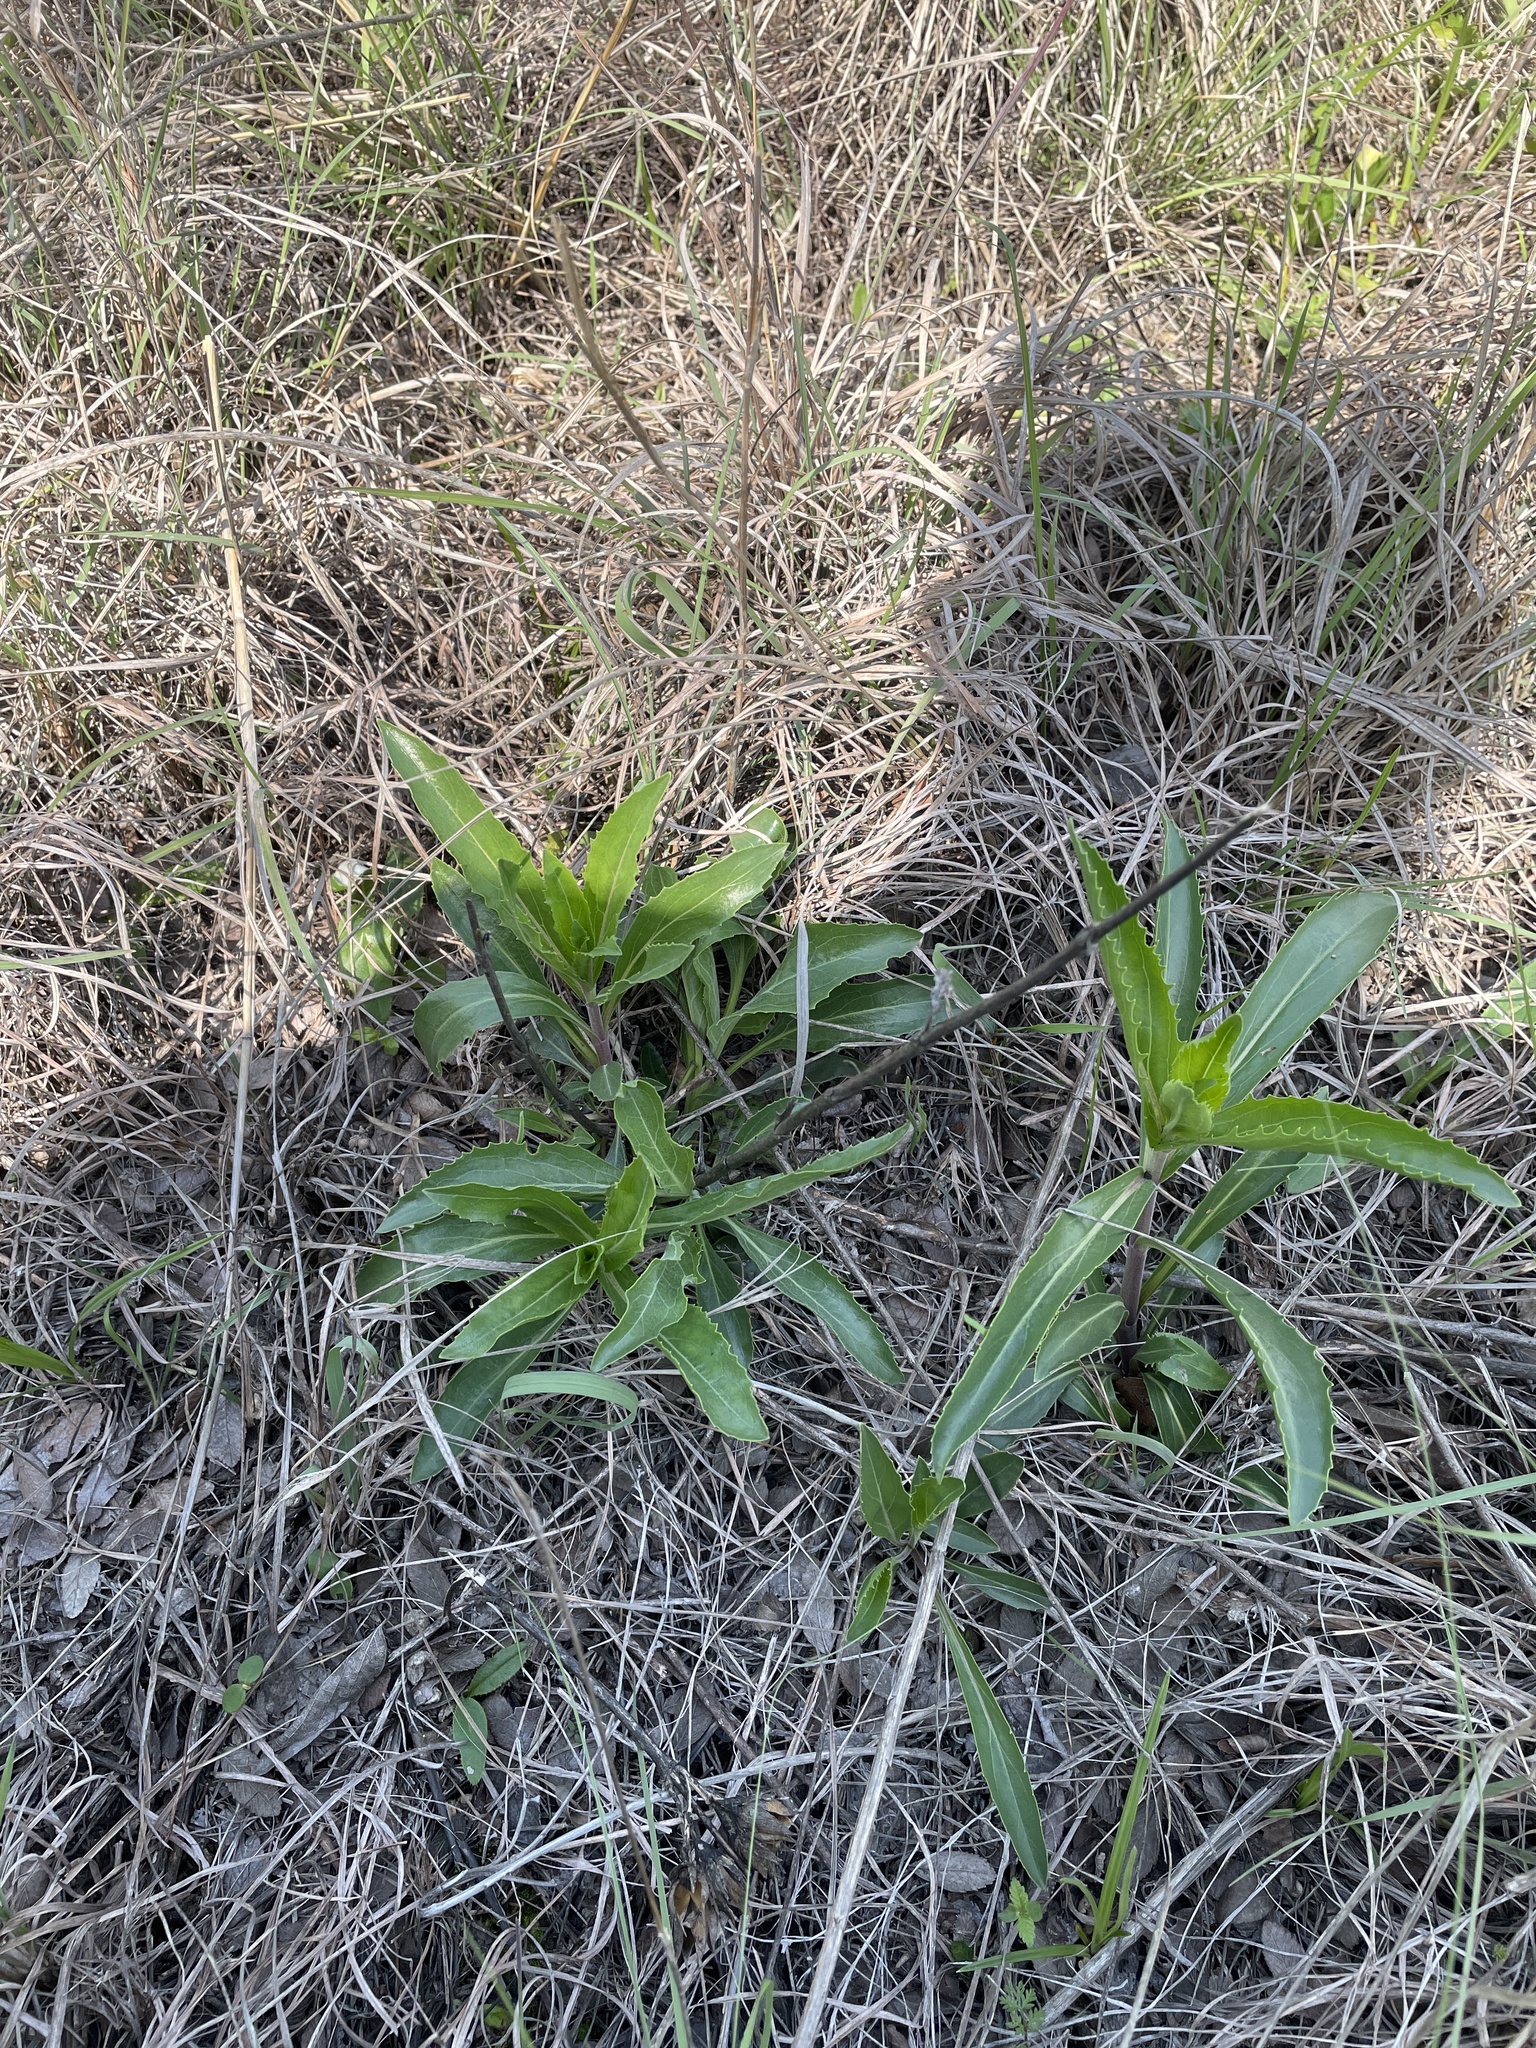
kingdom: Plantae
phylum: Tracheophyta
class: Magnoliopsida
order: Lamiales
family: Plantaginaceae
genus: Penstemon
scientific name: Penstemon cobaea
